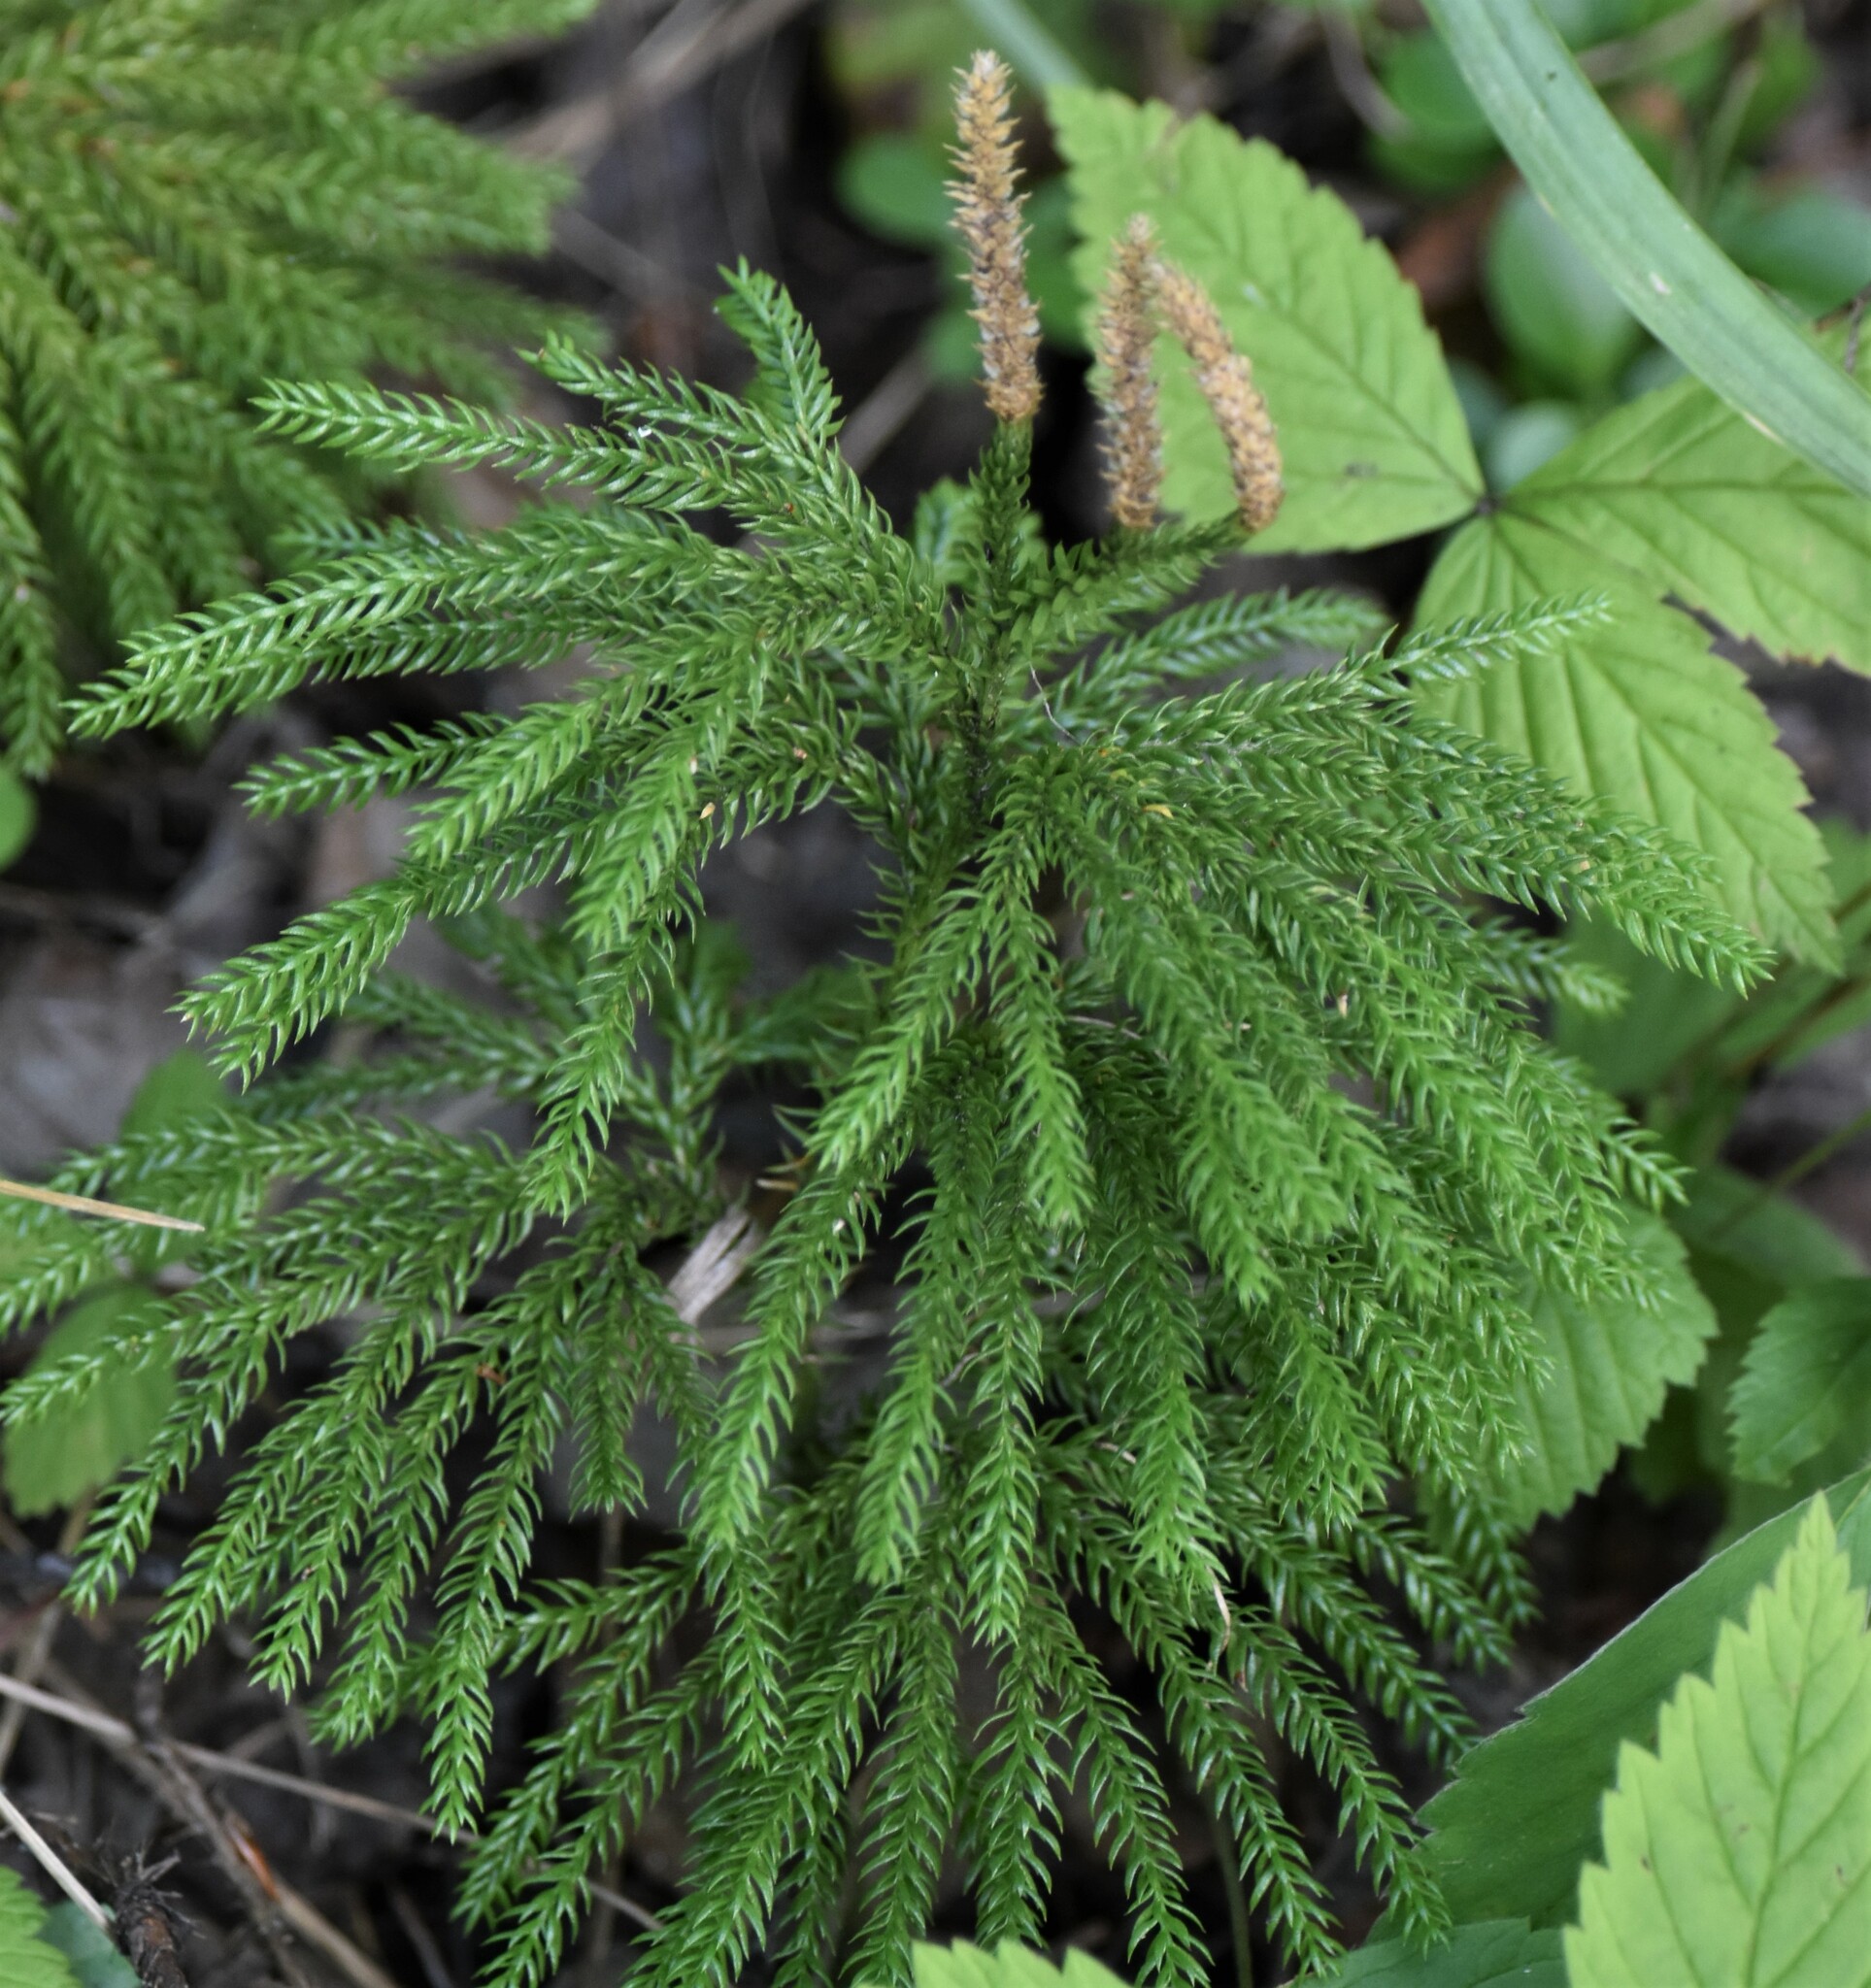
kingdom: Plantae
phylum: Tracheophyta
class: Lycopodiopsida
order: Lycopodiales
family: Lycopodiaceae
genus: Dendrolycopodium
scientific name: Dendrolycopodium dendroideum
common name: Northern tree-clubmoss
